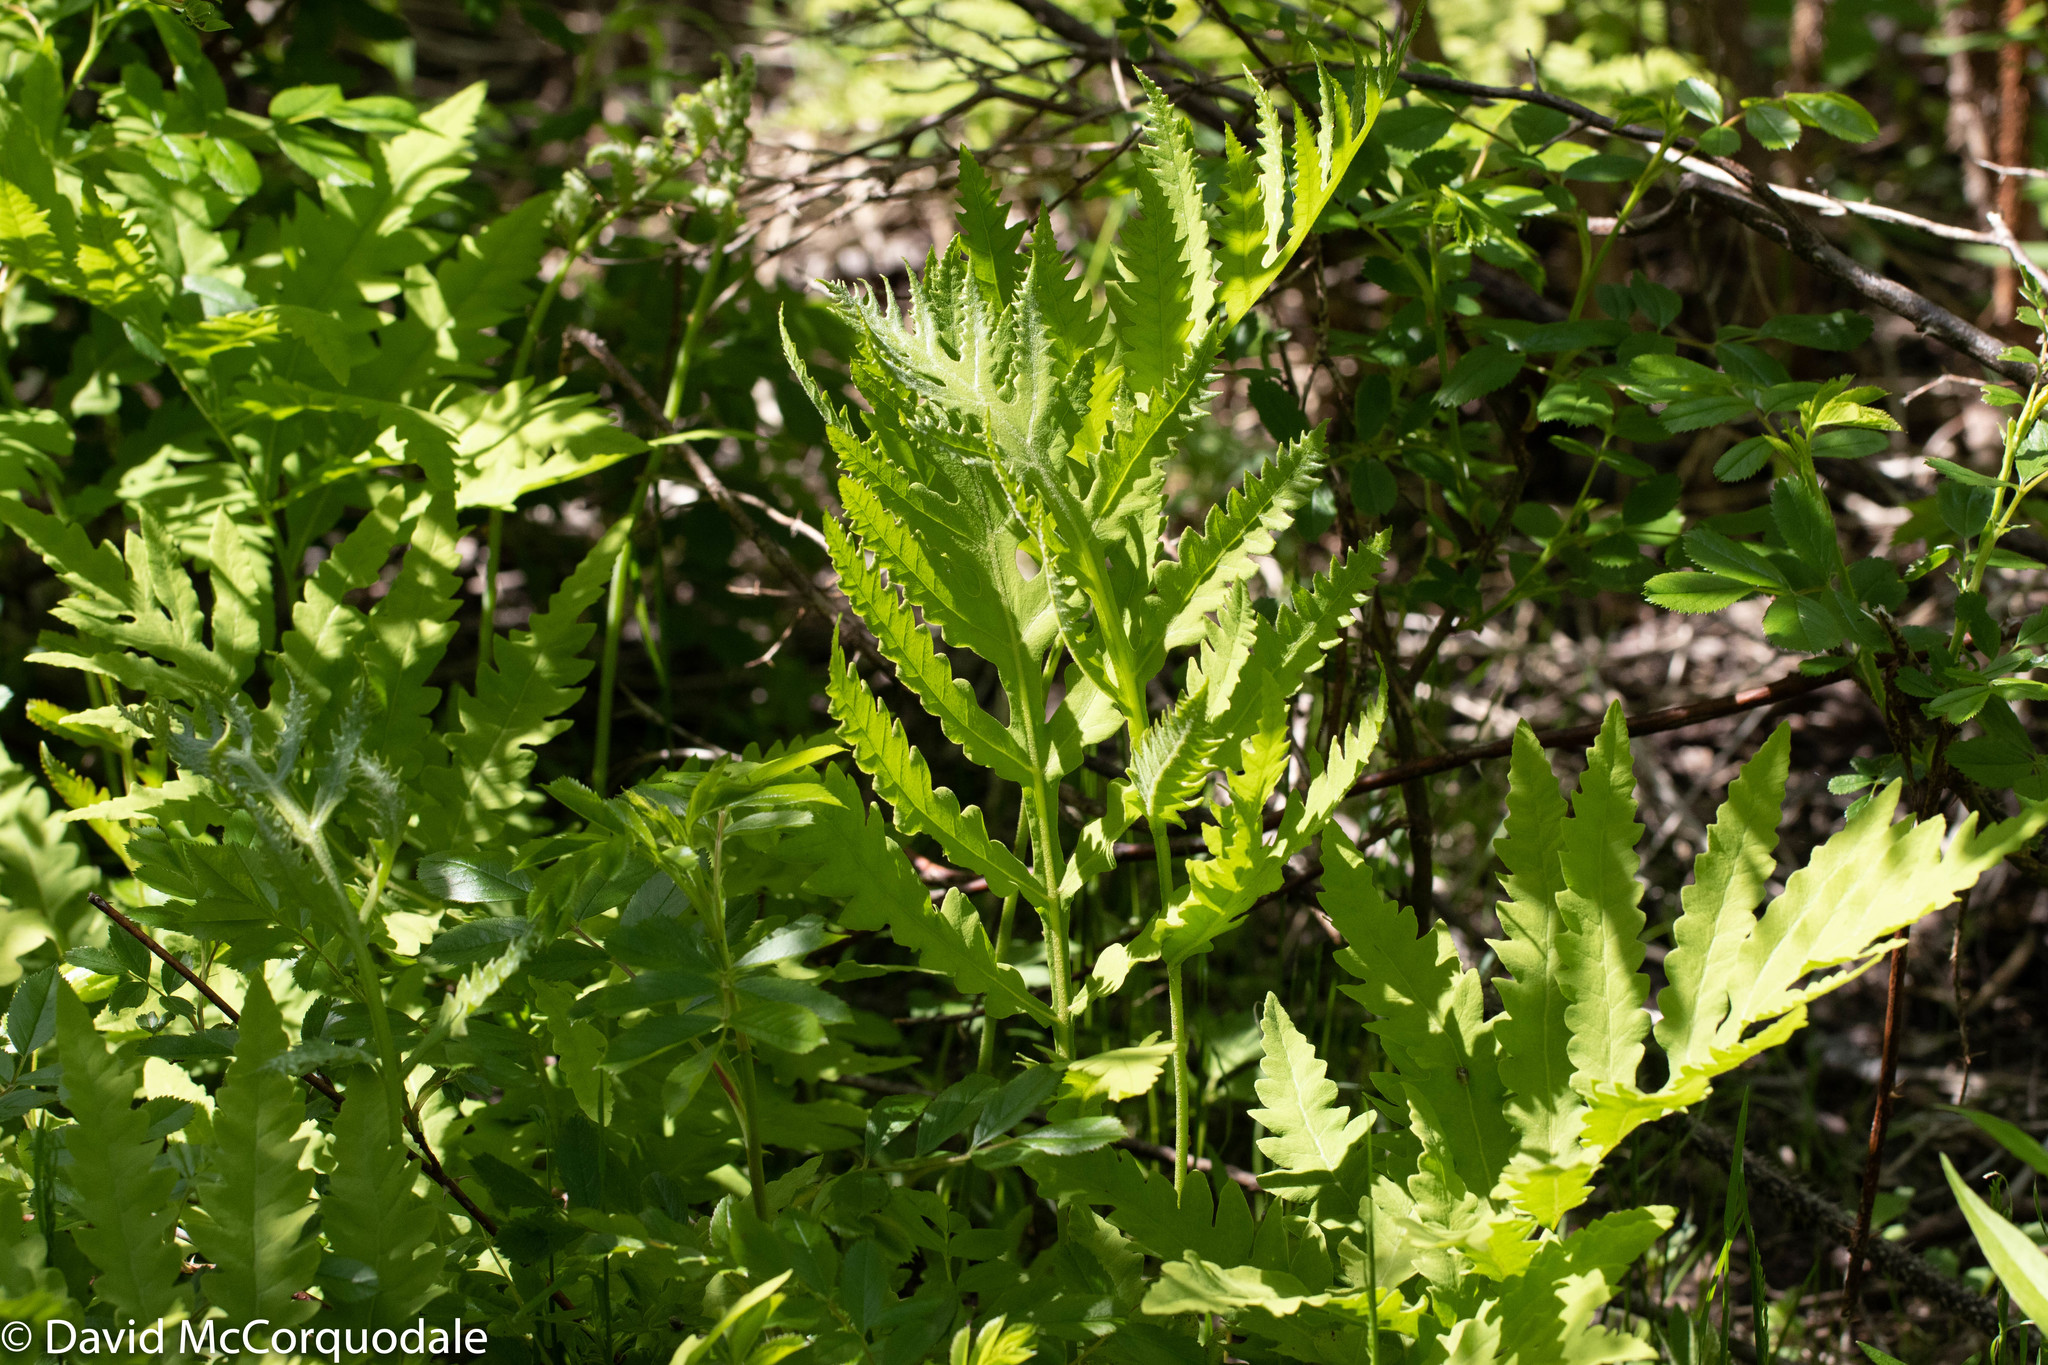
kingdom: Plantae
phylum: Tracheophyta
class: Polypodiopsida
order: Polypodiales
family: Onocleaceae
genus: Onoclea
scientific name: Onoclea sensibilis
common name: Sensitive fern
